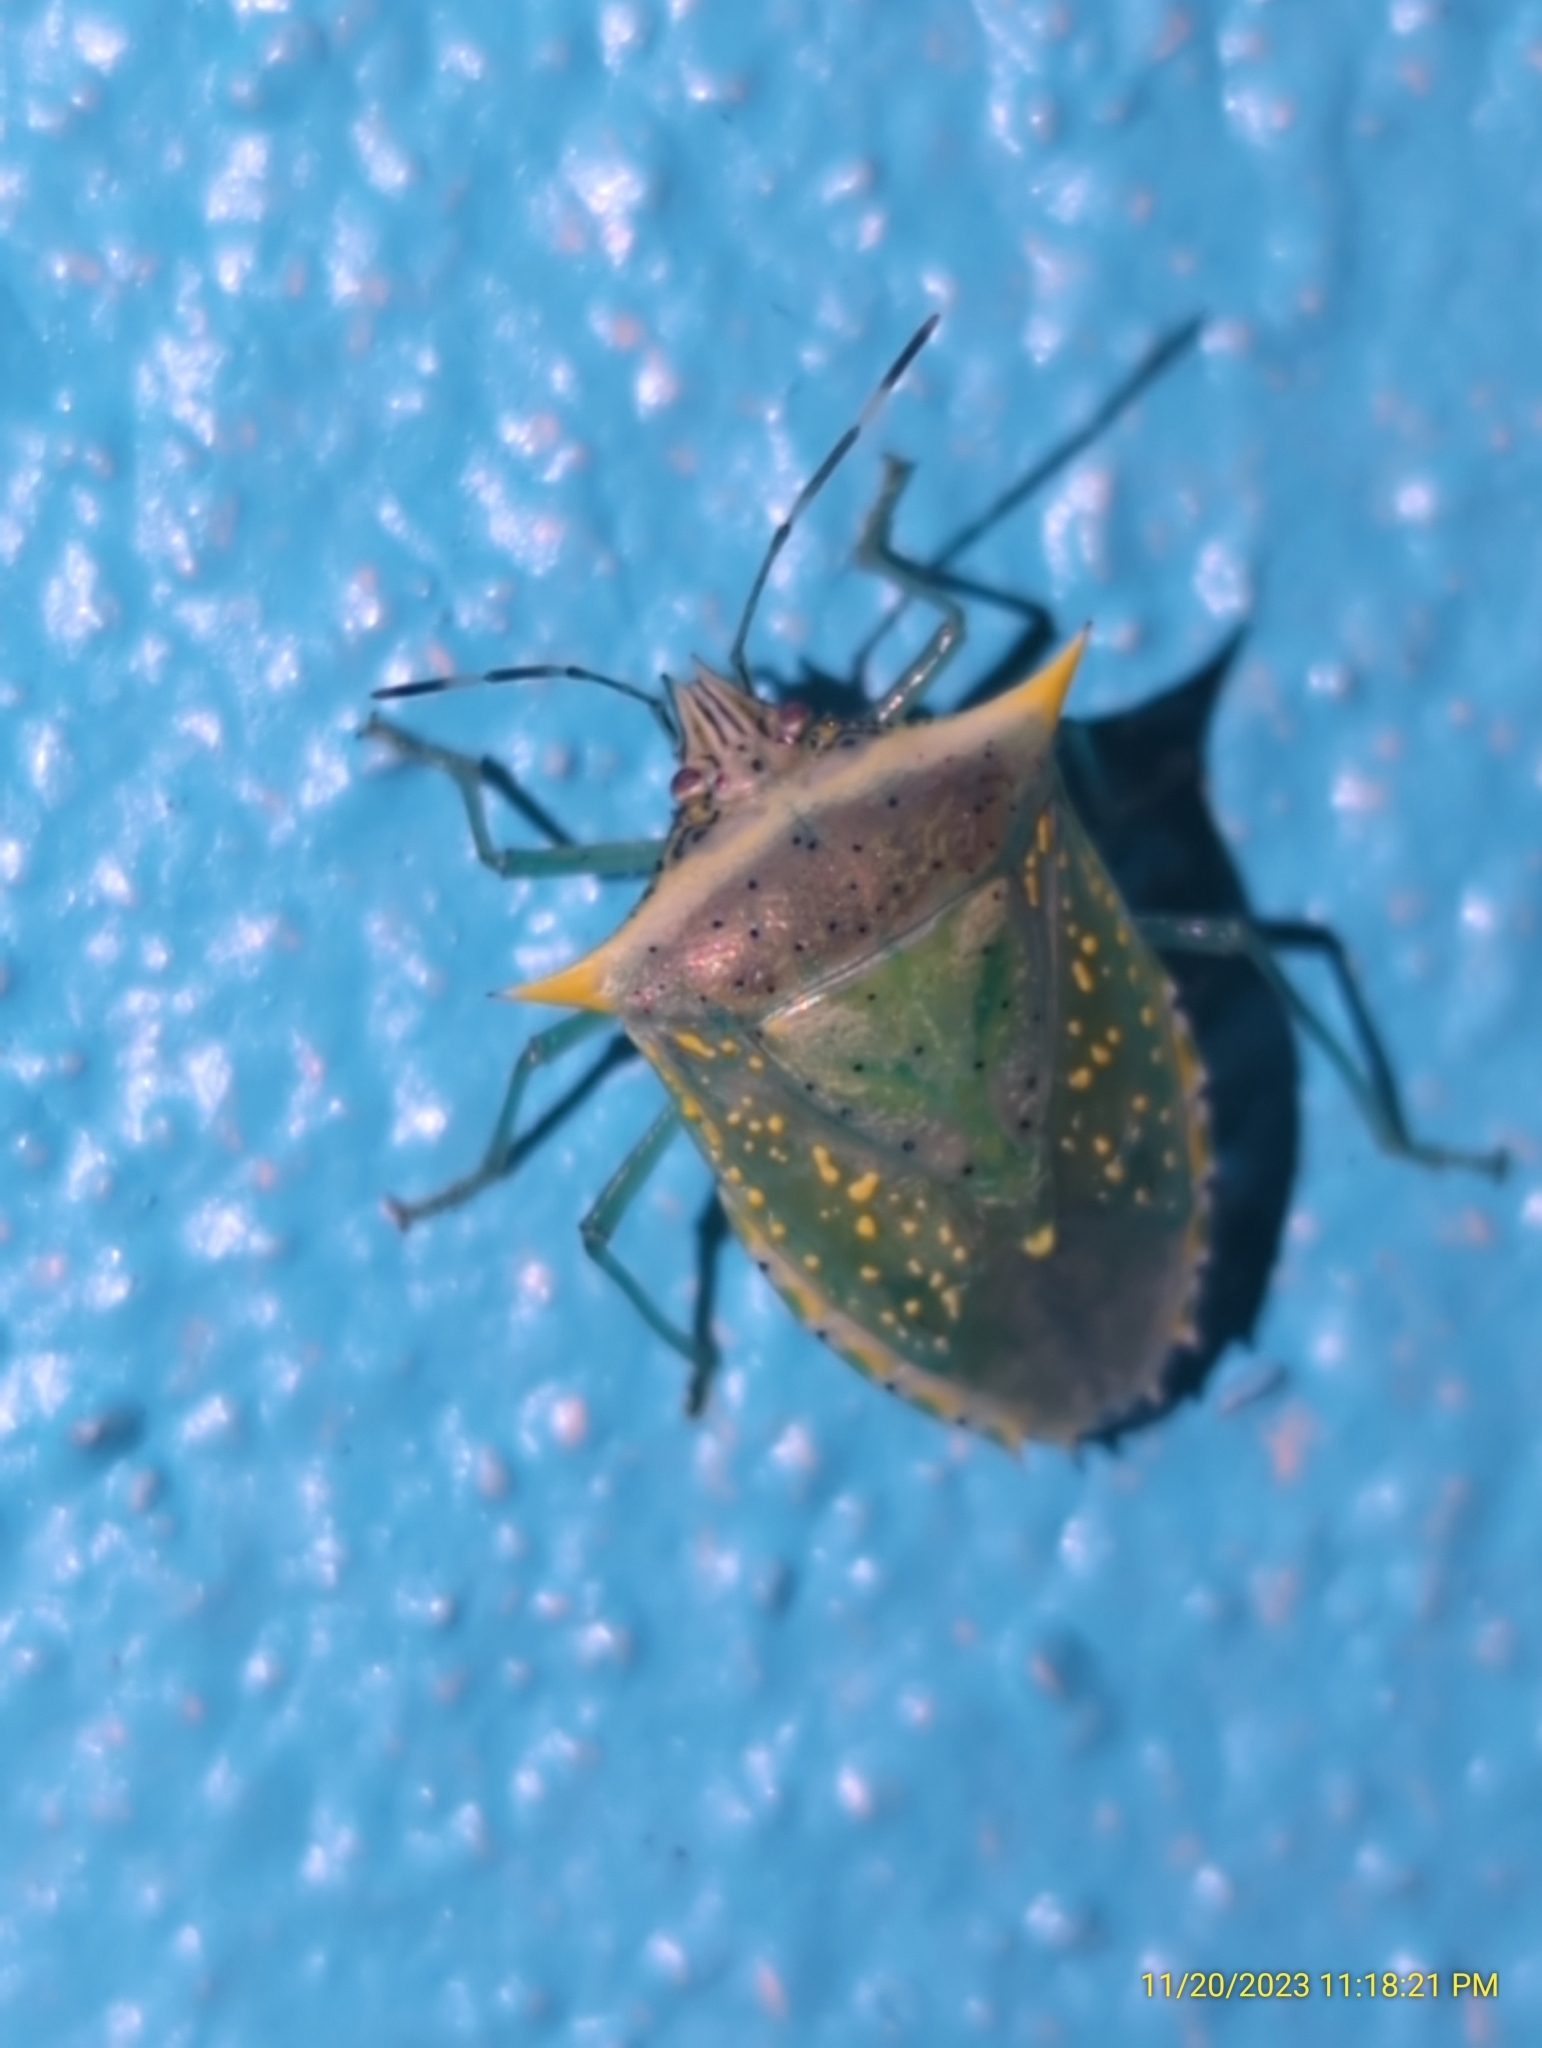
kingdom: Animalia
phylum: Arthropoda
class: Insecta
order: Hemiptera
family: Pentatomidae
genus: Arvelius
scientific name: Arvelius albopunctatus
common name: Tomato stink bug
